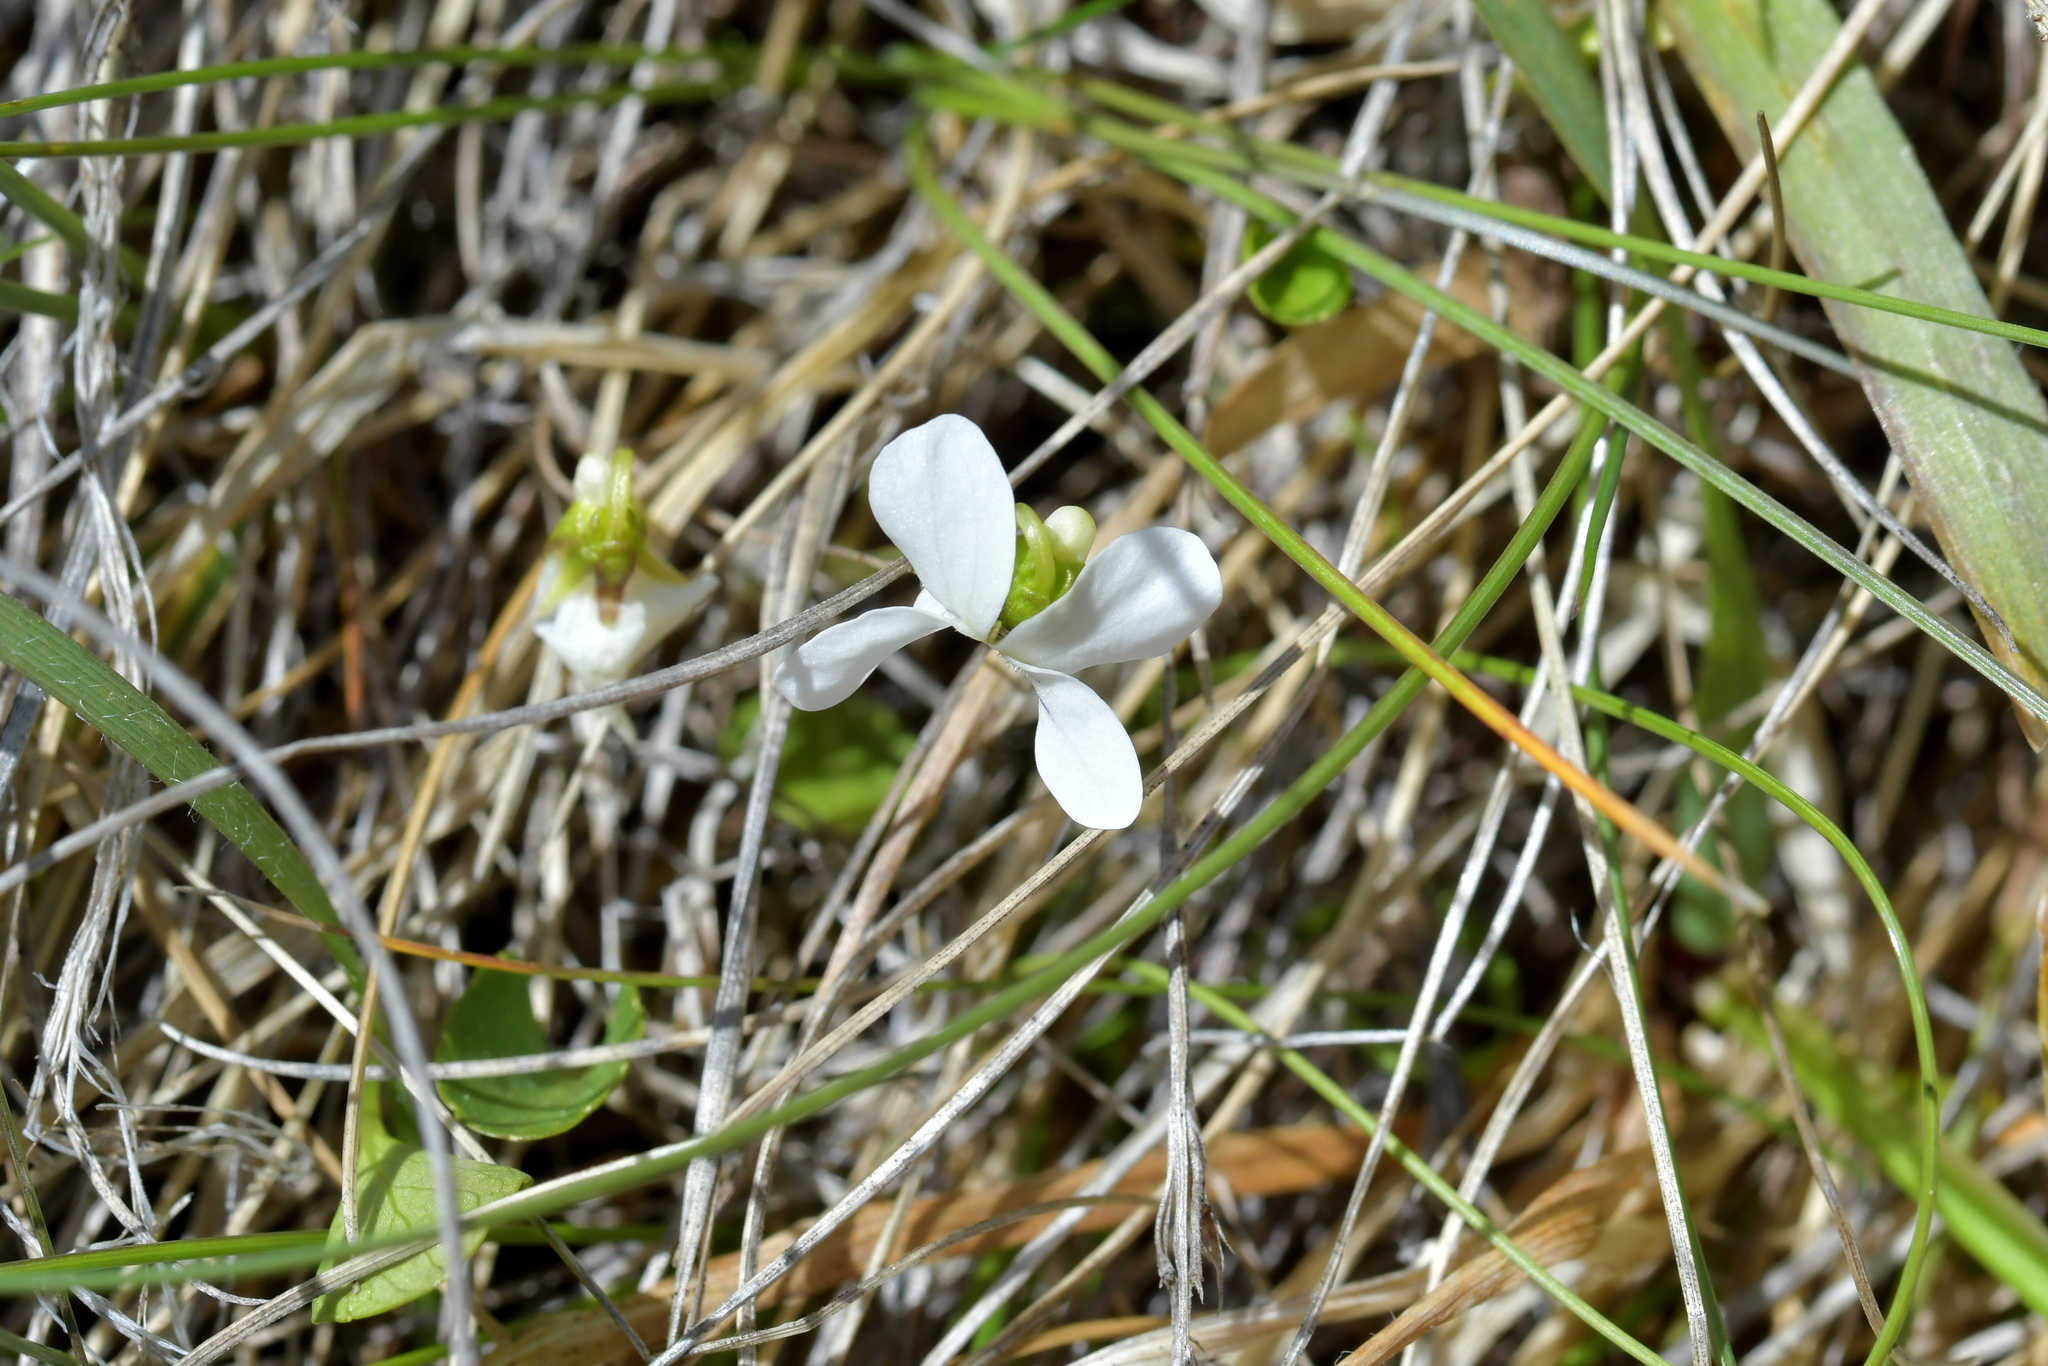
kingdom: Plantae
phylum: Tracheophyta
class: Magnoliopsida
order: Malpighiales
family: Violaceae
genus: Viola
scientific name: Viola cunninghamii
